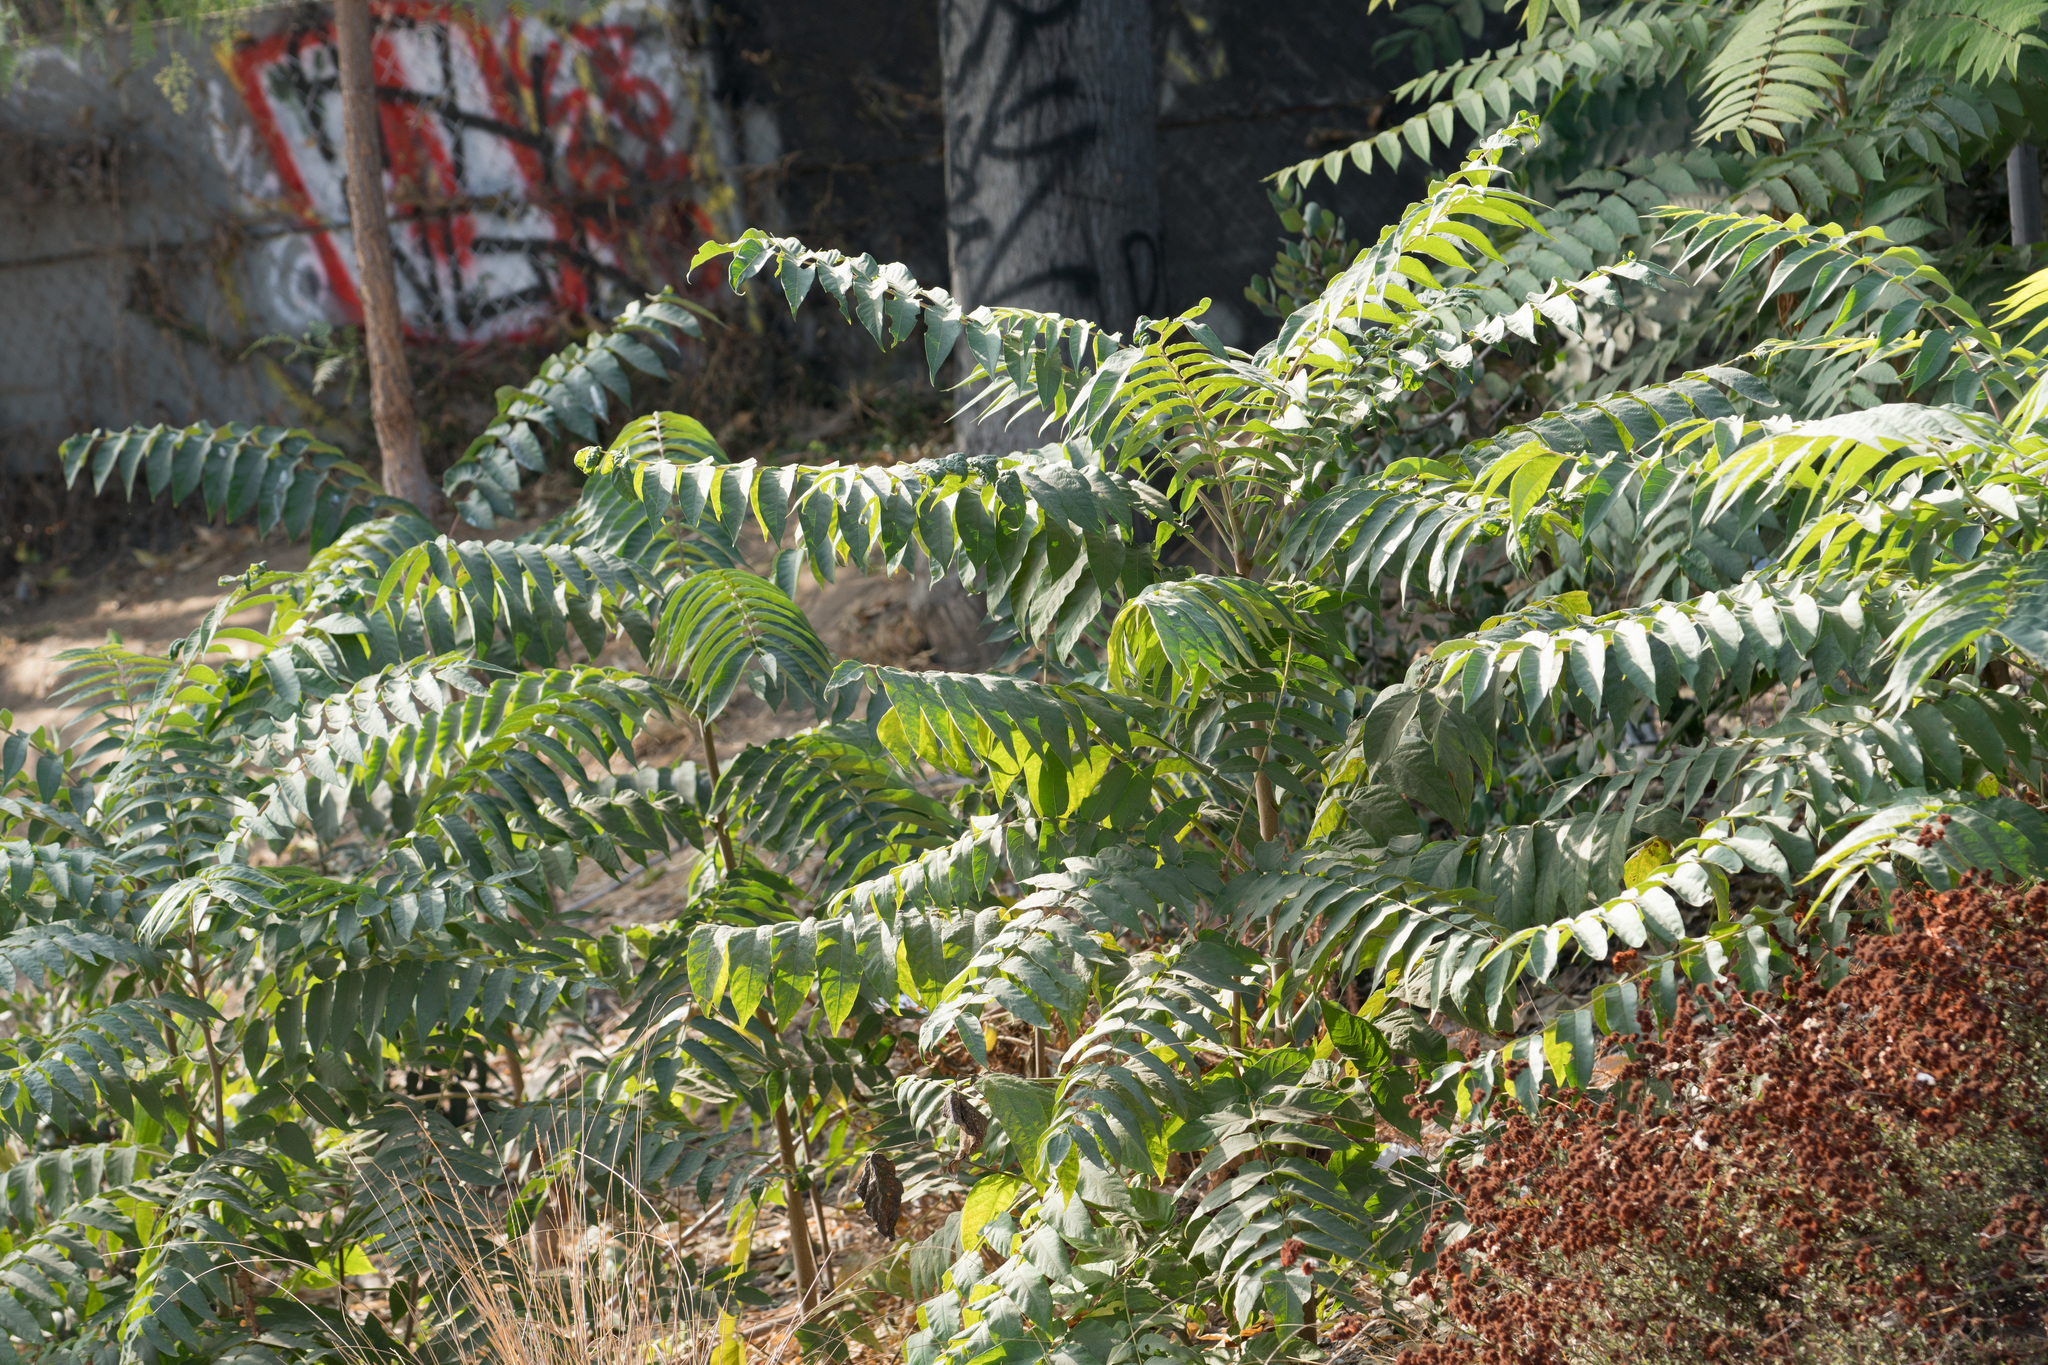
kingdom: Plantae
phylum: Tracheophyta
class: Magnoliopsida
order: Sapindales
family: Simaroubaceae
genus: Ailanthus
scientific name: Ailanthus altissima
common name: Tree-of-heaven
